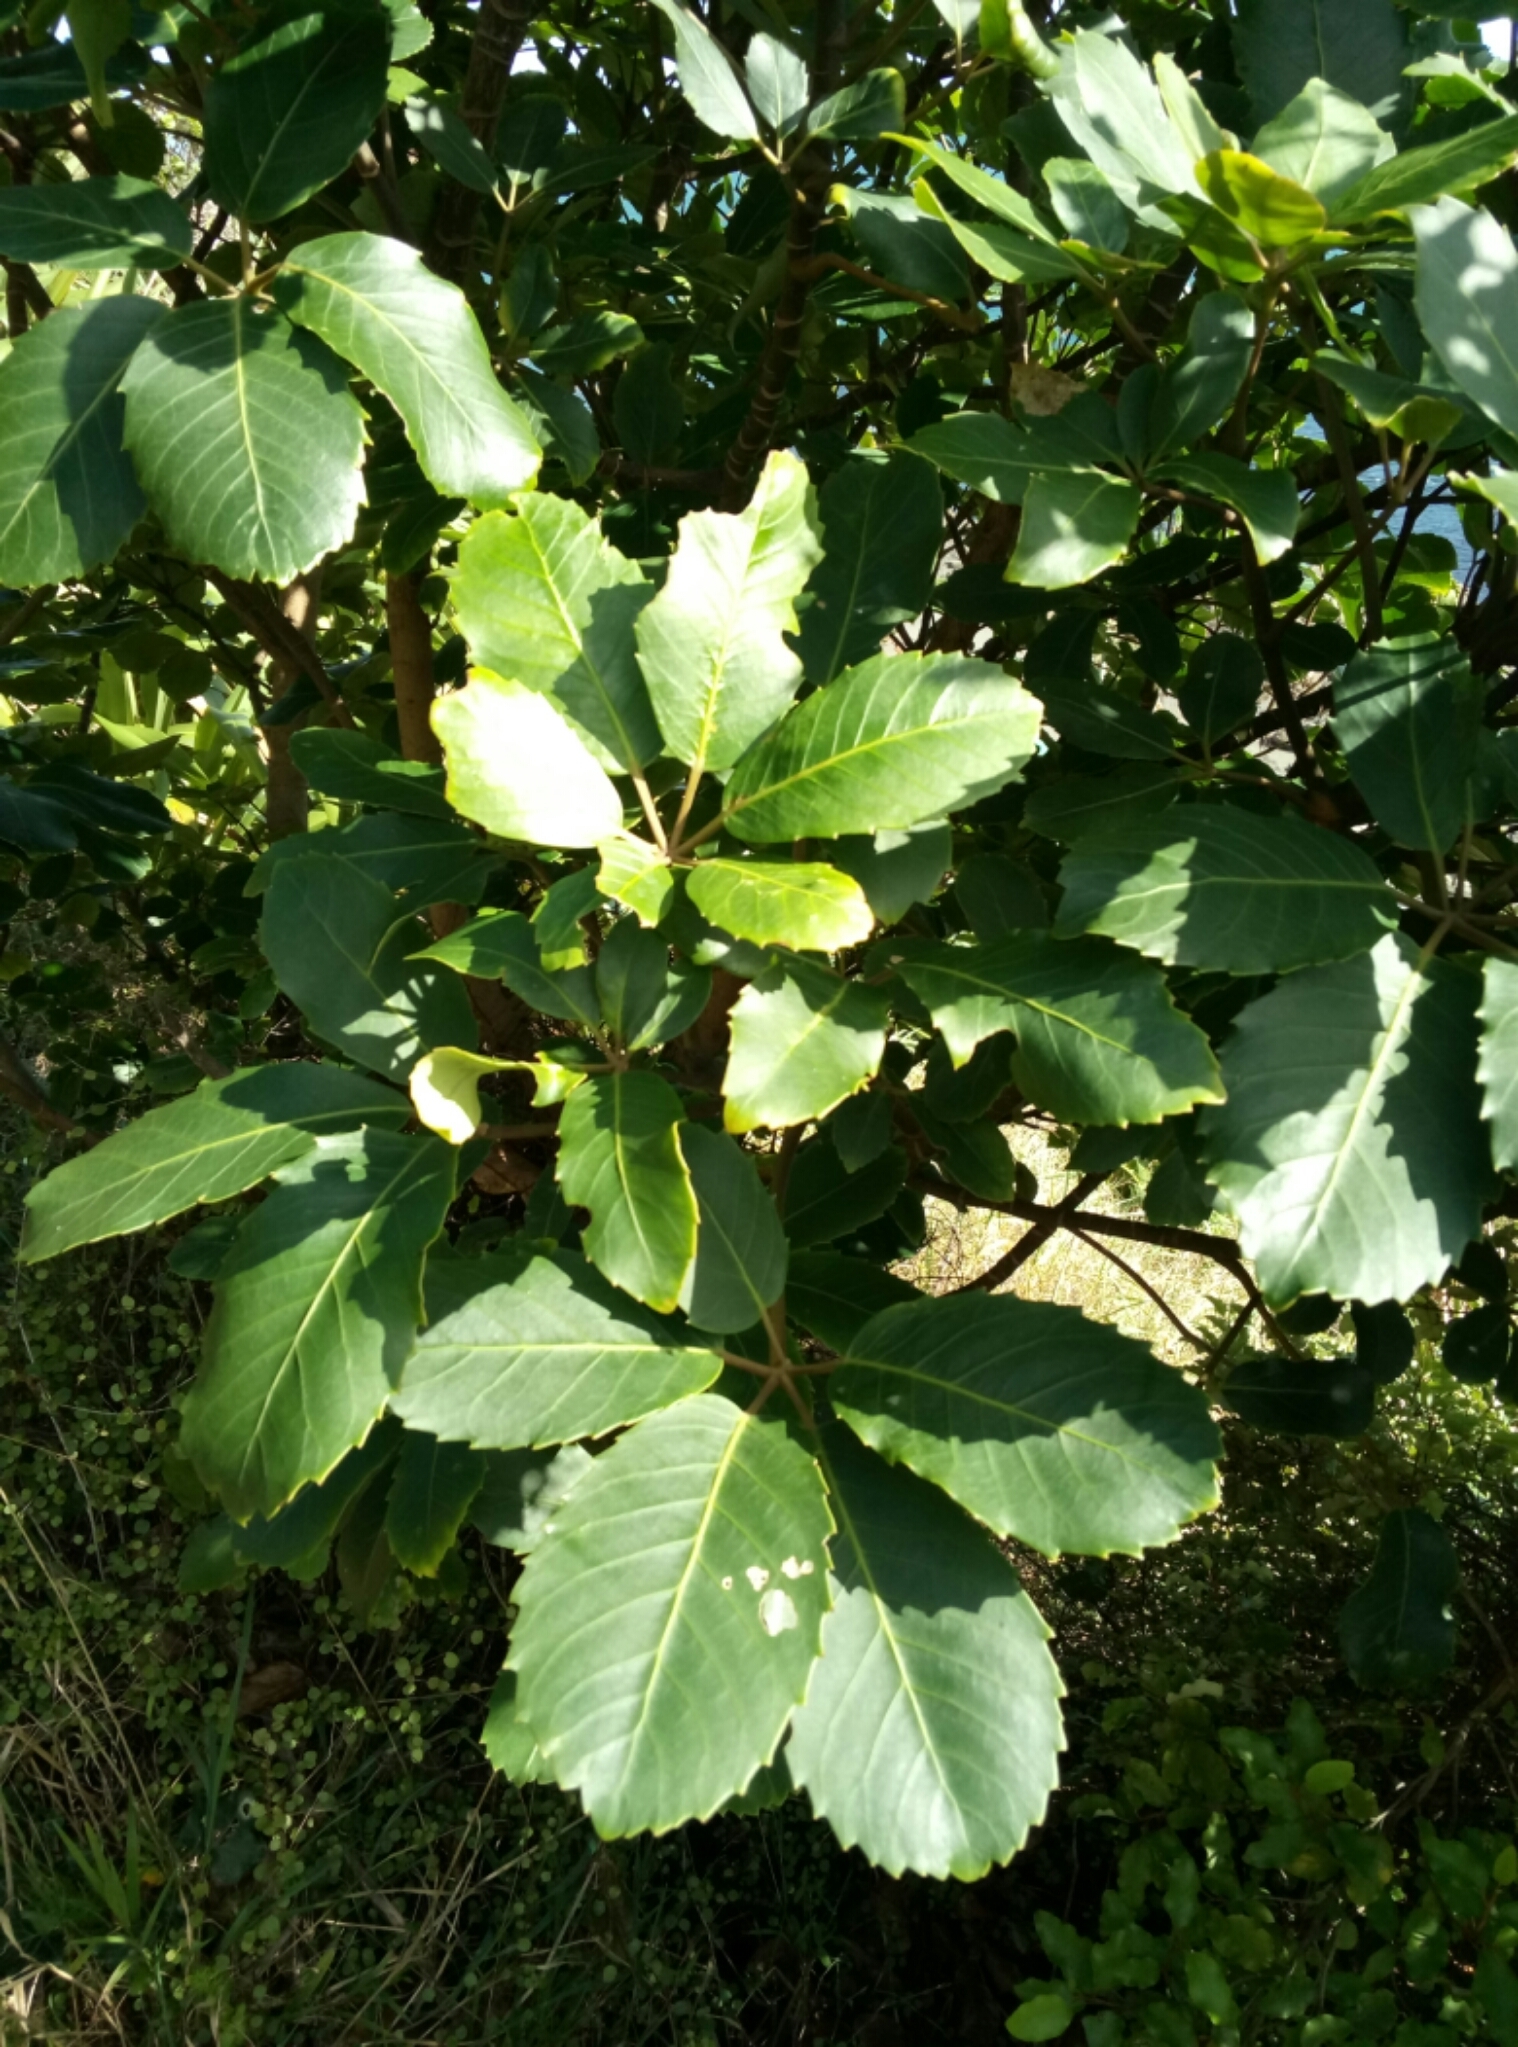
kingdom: Plantae
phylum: Tracheophyta
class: Magnoliopsida
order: Apiales
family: Araliaceae
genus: Neopanax
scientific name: Neopanax arboreus
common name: Five-fingers
